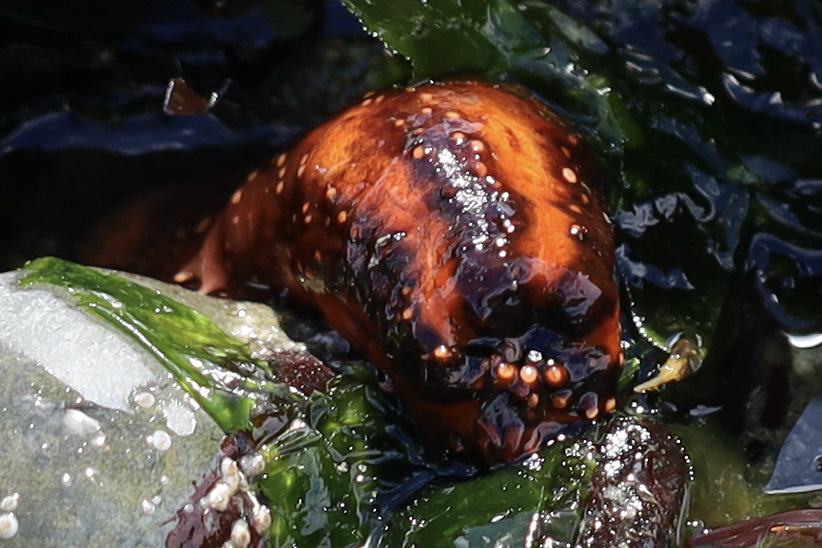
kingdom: Animalia
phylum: Echinodermata
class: Holothuroidea
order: Dendrochirotida
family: Cucumariidae
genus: Cucumaria
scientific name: Cucumaria miniata
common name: Orange sea cucumber
